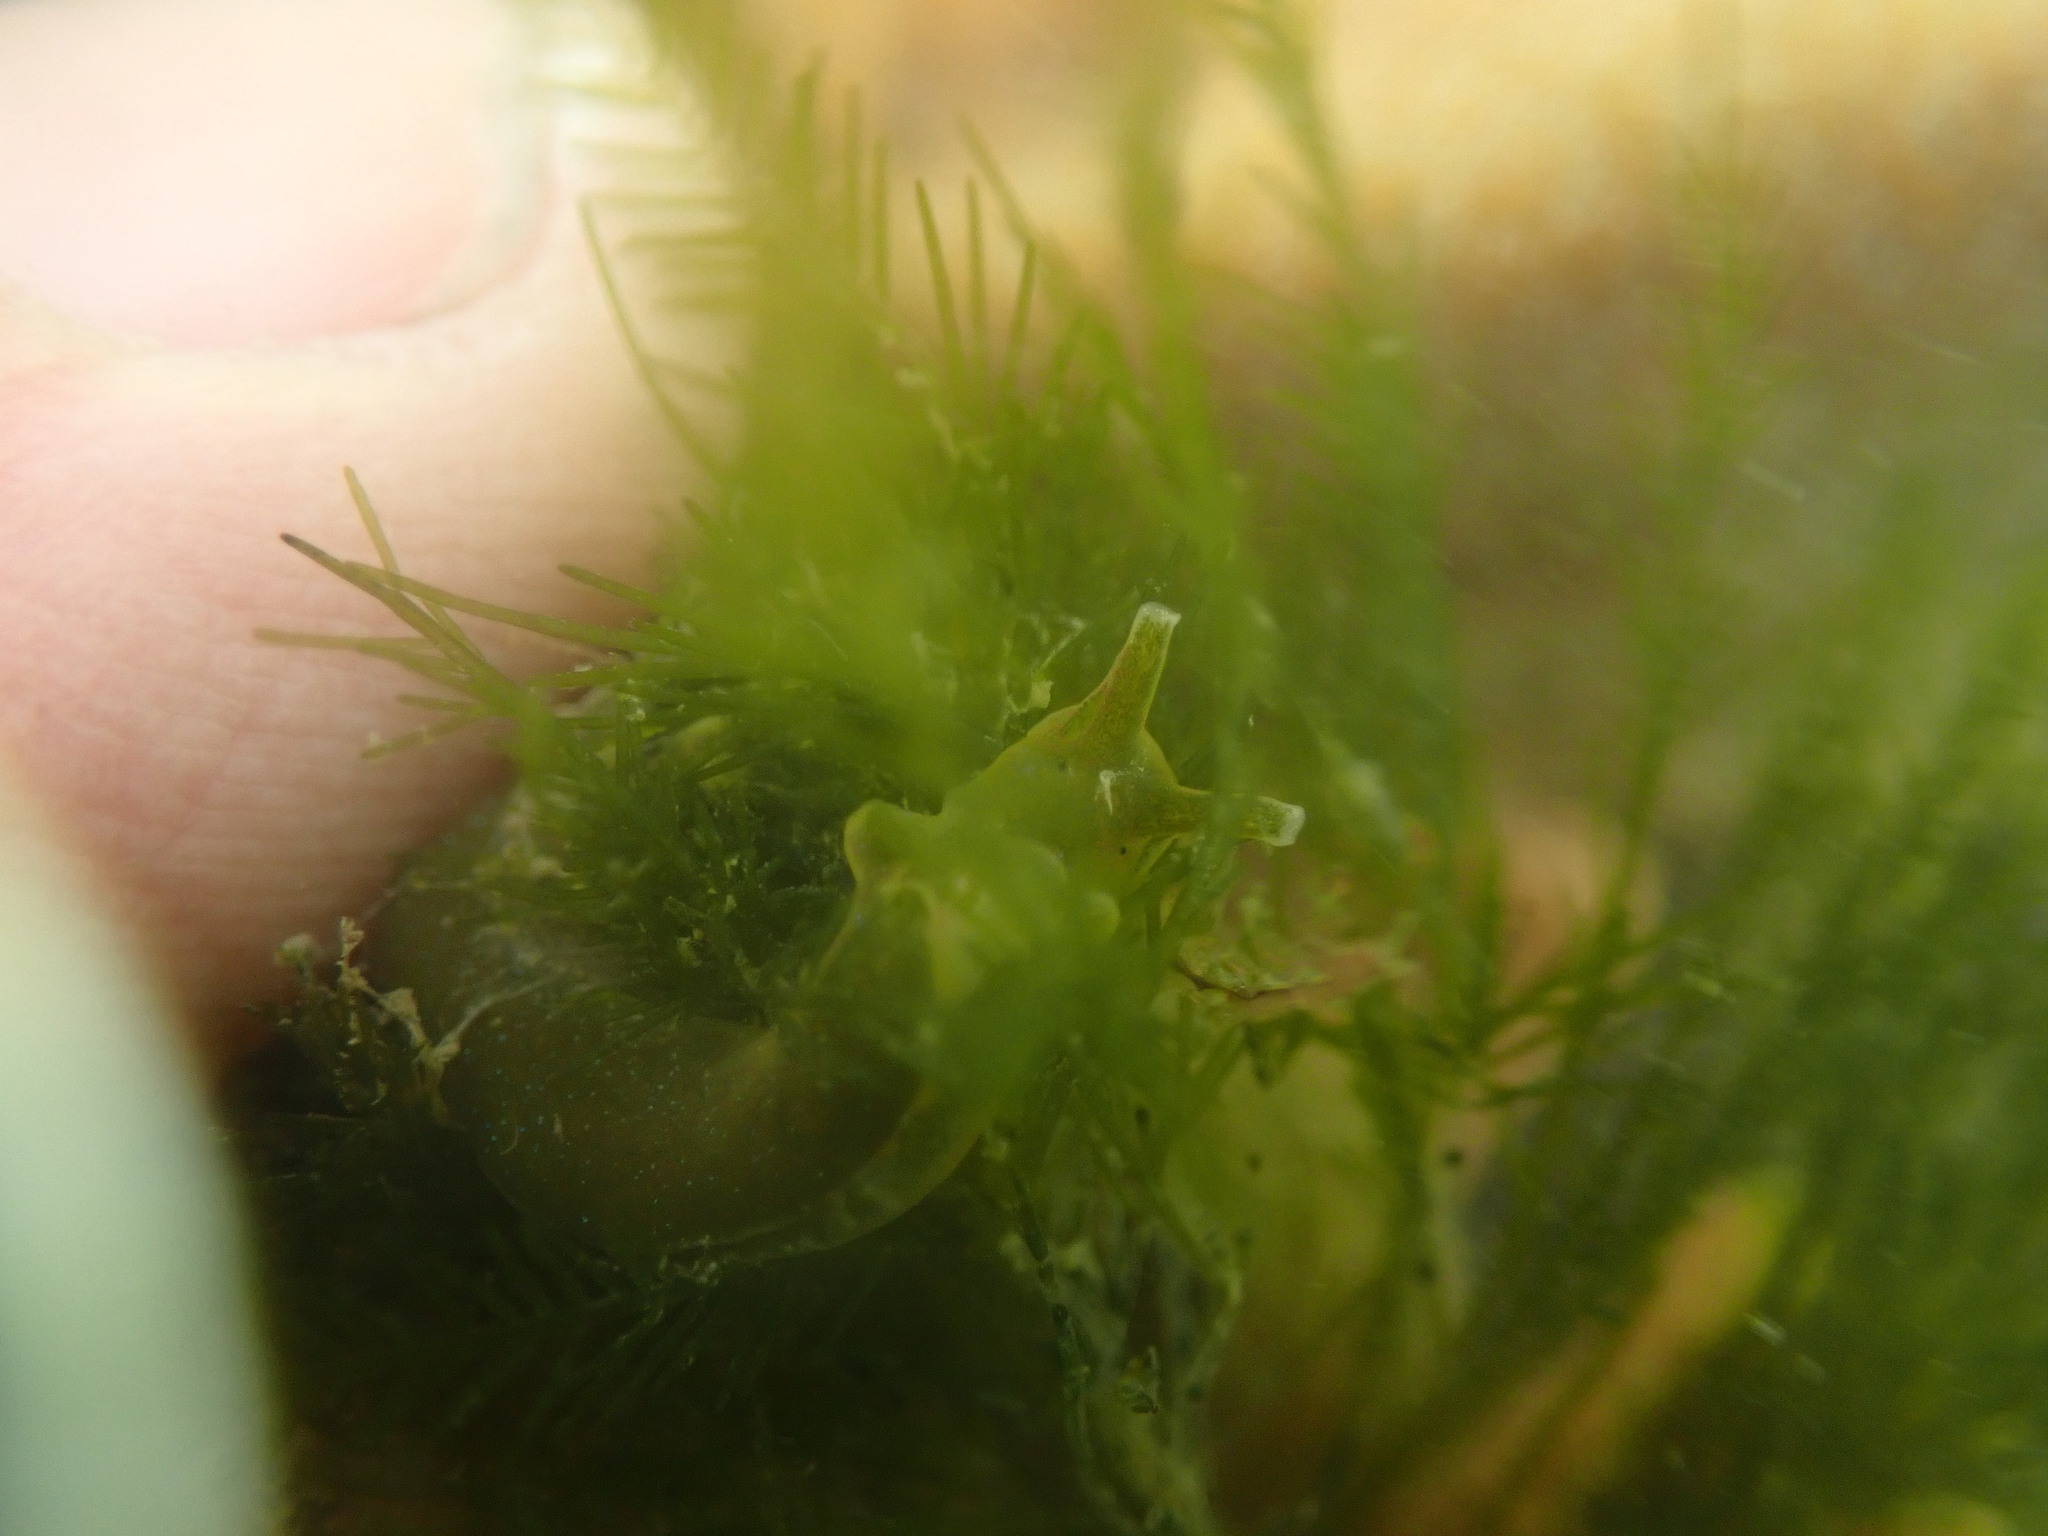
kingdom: Animalia
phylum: Mollusca
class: Gastropoda
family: Plakobranchidae
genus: Elysia
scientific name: Elysia hedgpethi
